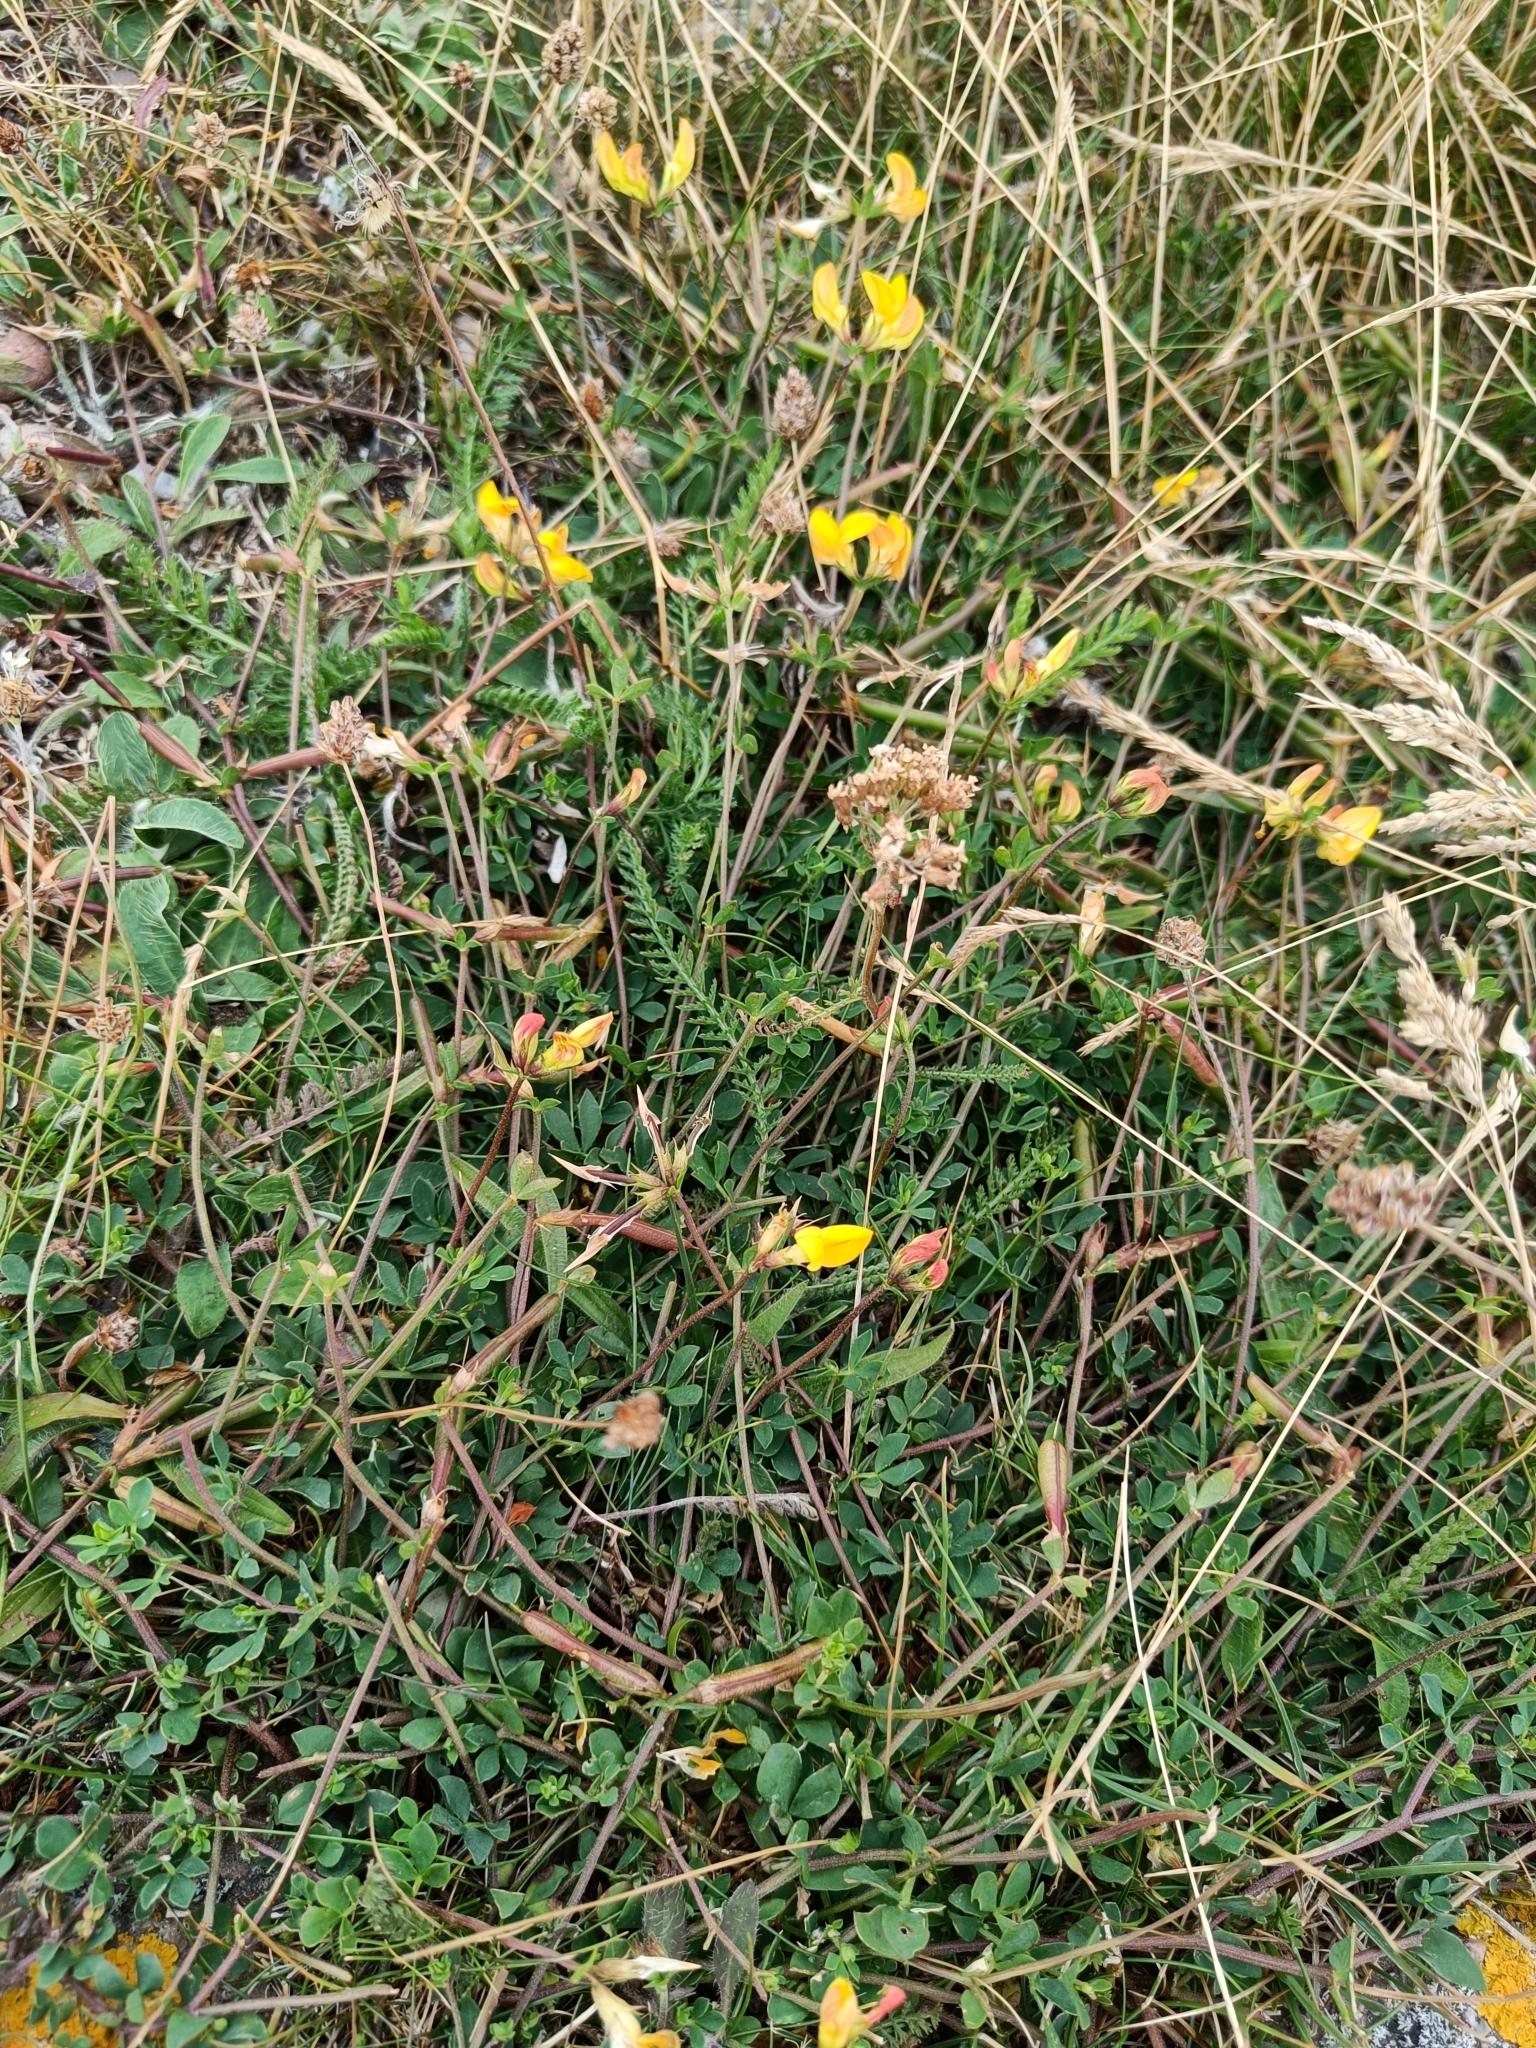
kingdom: Plantae
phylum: Tracheophyta
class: Magnoliopsida
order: Fabales
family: Fabaceae
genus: Lotus
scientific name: Lotus corniculatus
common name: Common bird's-foot-trefoil
